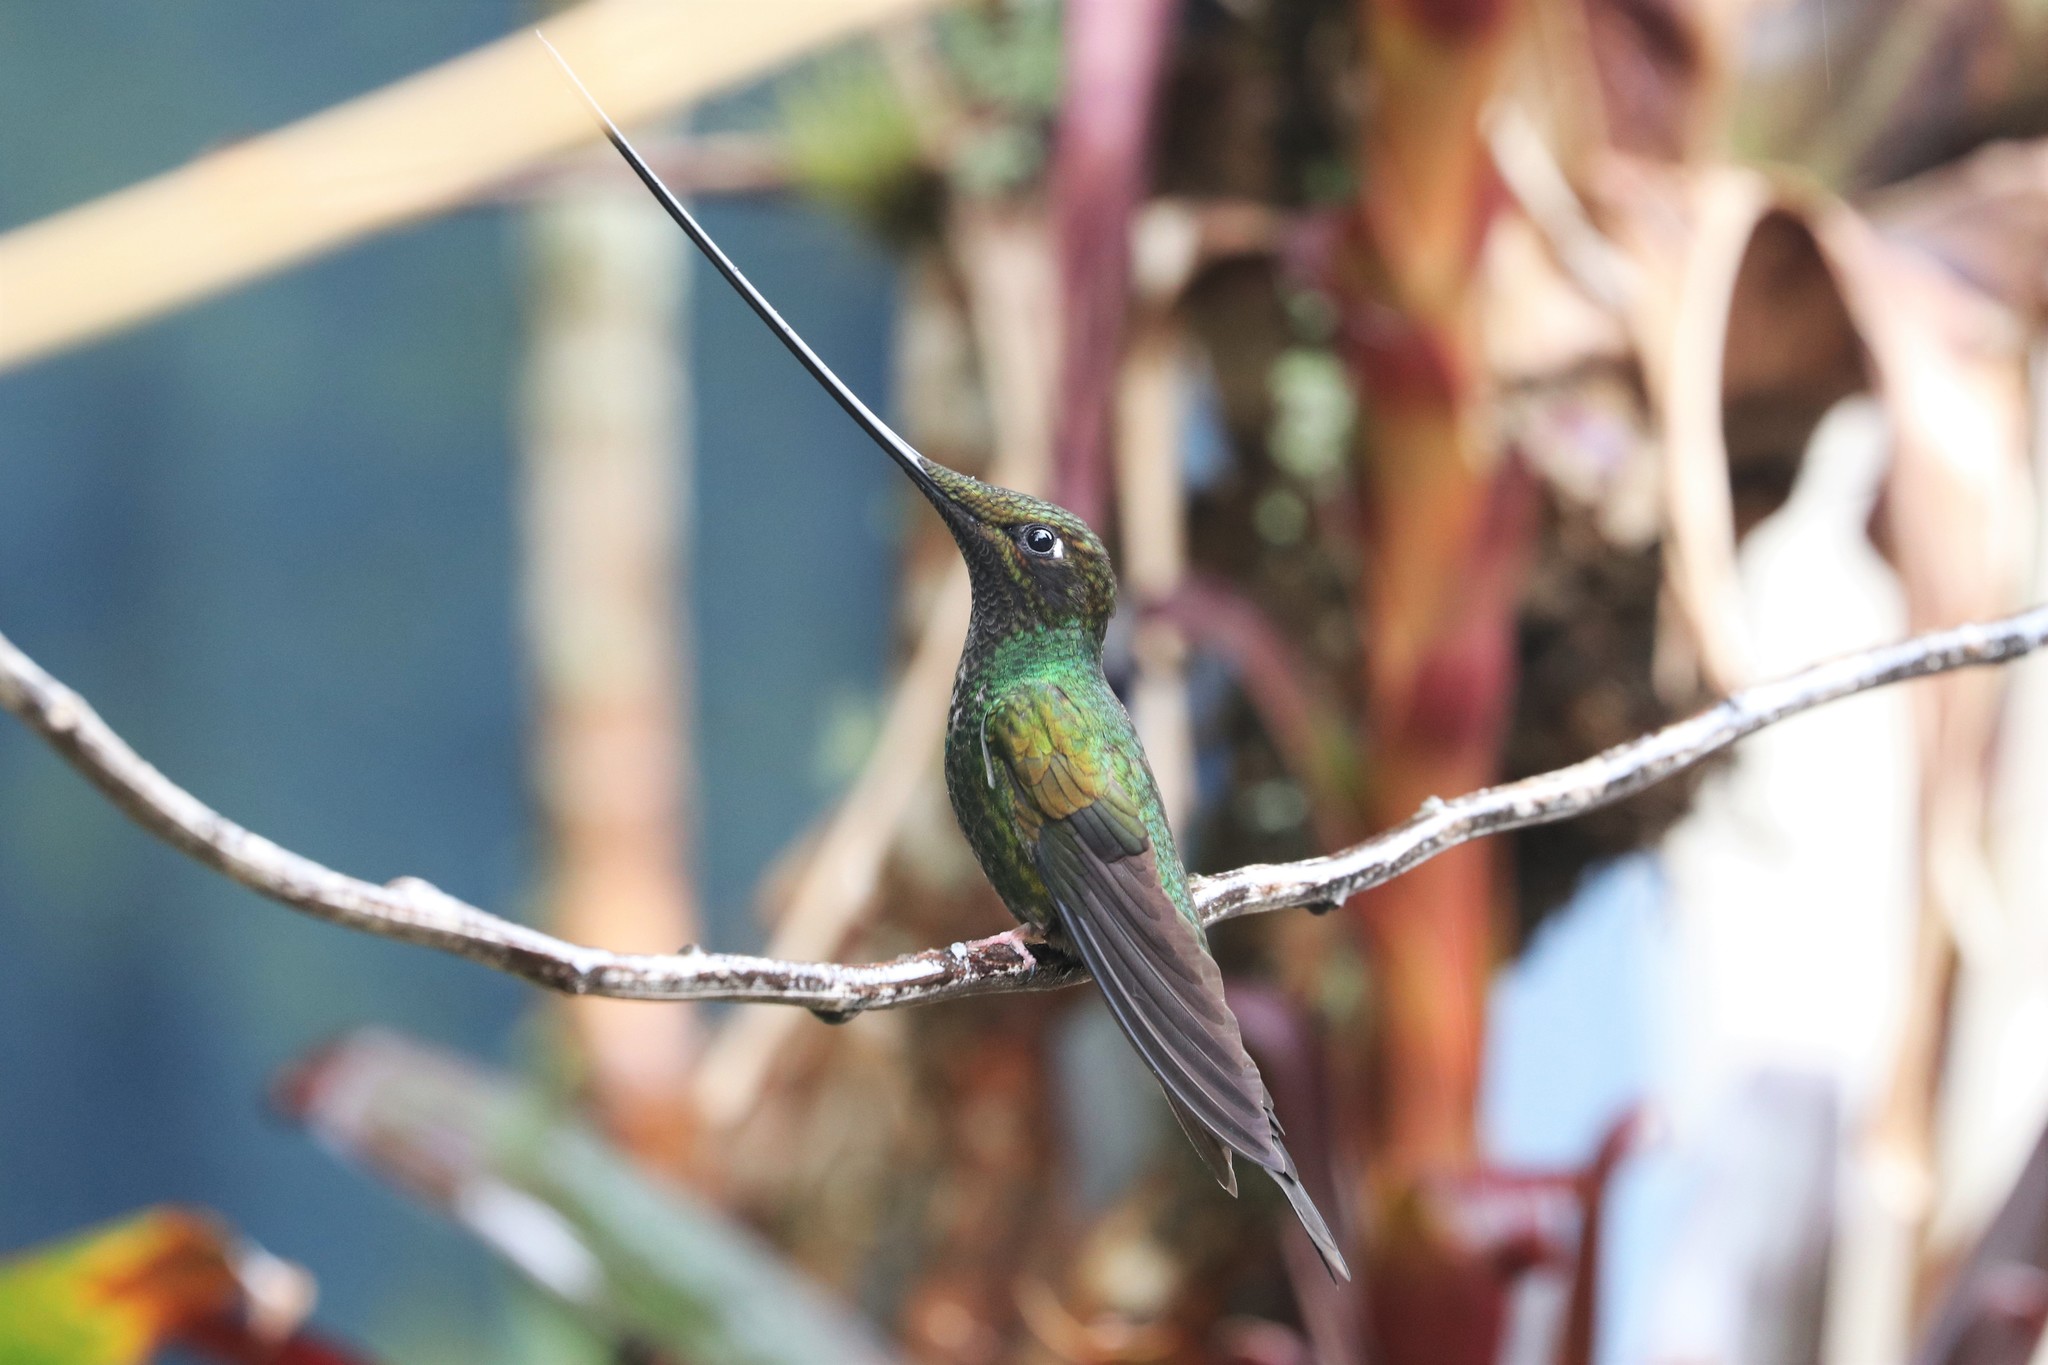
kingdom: Animalia
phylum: Chordata
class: Aves
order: Apodiformes
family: Trochilidae
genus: Ensifera
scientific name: Ensifera ensifera
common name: Sword-billed hummingbird
